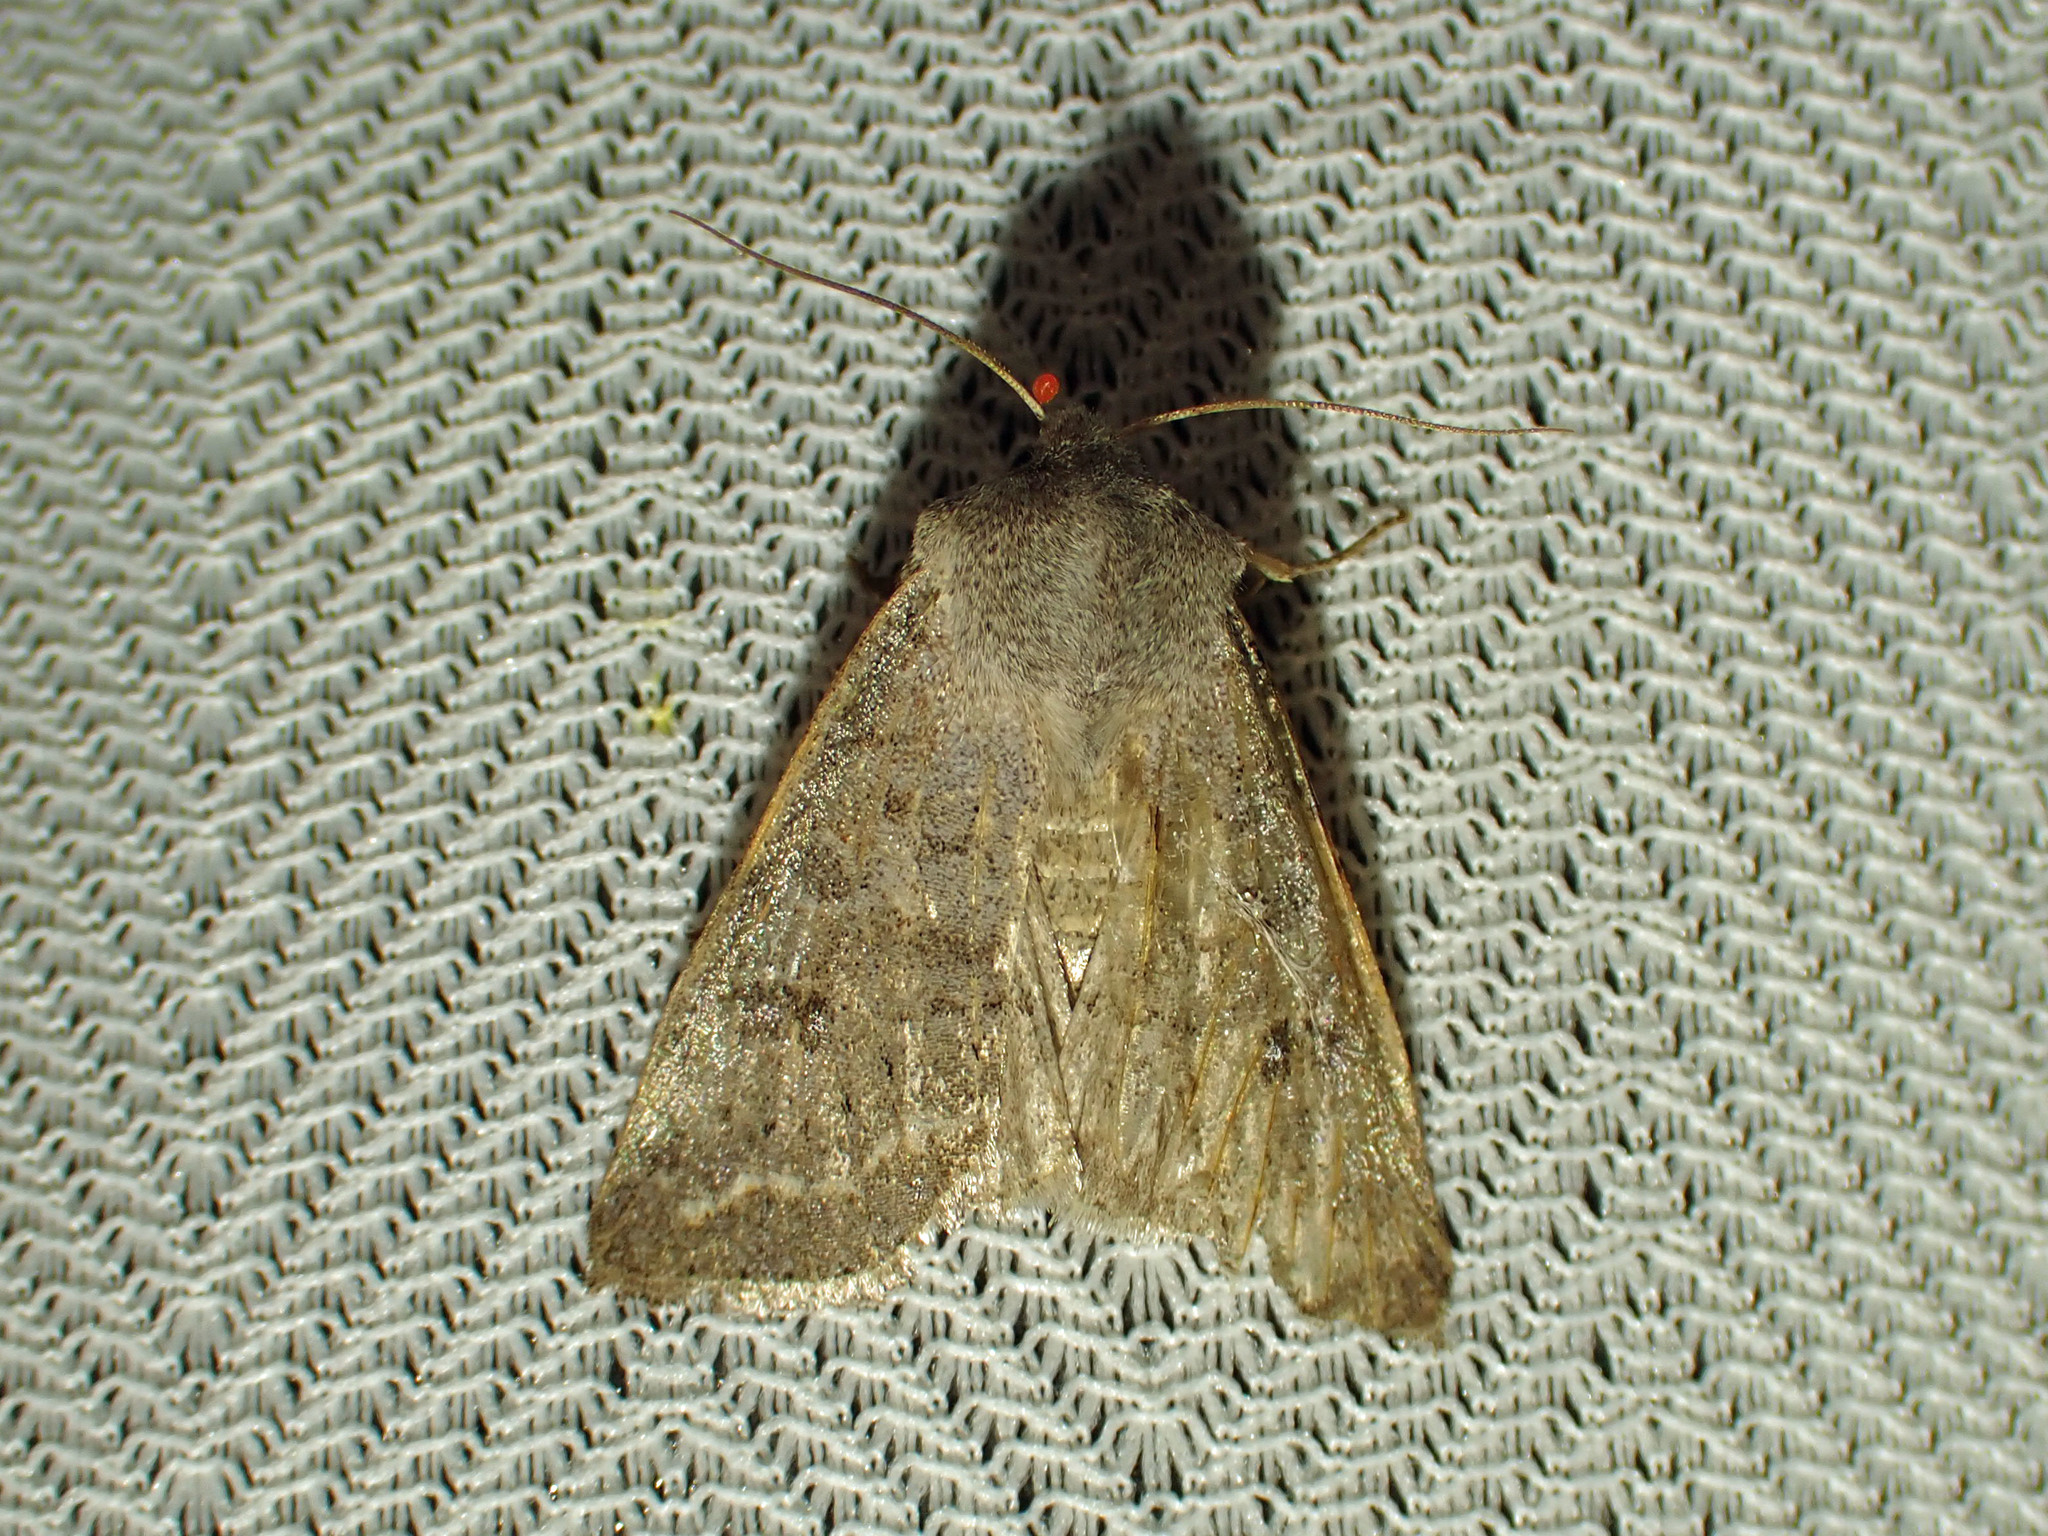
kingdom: Animalia
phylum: Arthropoda
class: Insecta
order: Lepidoptera
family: Noctuidae
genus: Orthosia
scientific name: Orthosia hibisci
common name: Green fruitworm
